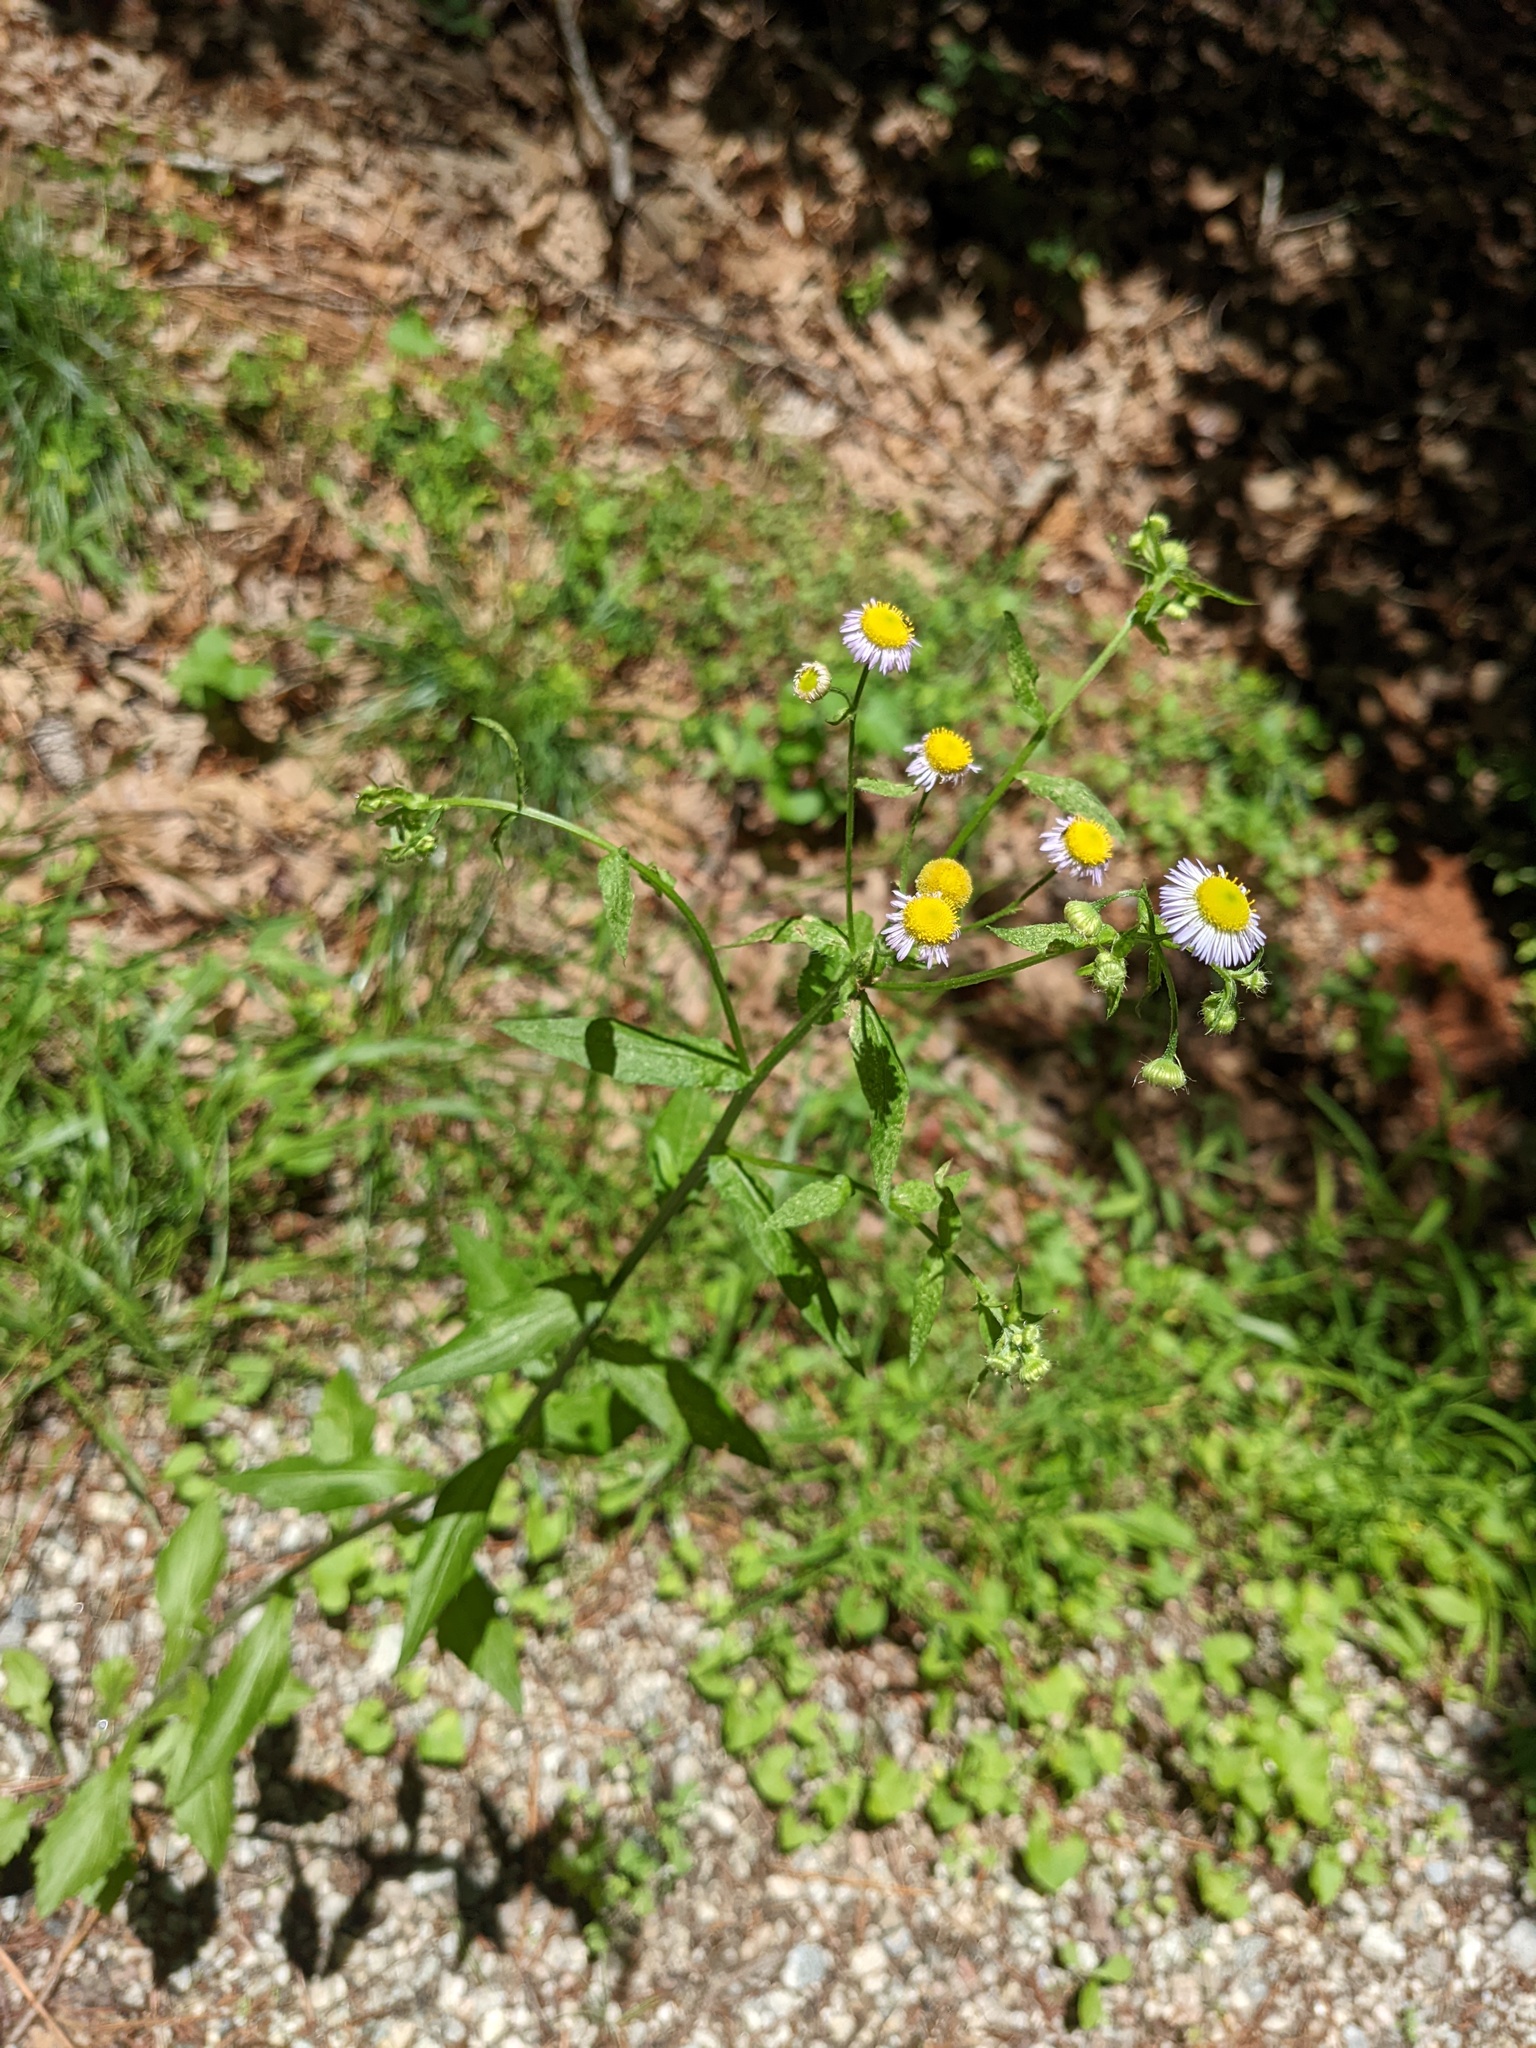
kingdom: Plantae
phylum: Tracheophyta
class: Magnoliopsida
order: Asterales
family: Asteraceae
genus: Erigeron
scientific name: Erigeron annuus
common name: Tall fleabane
